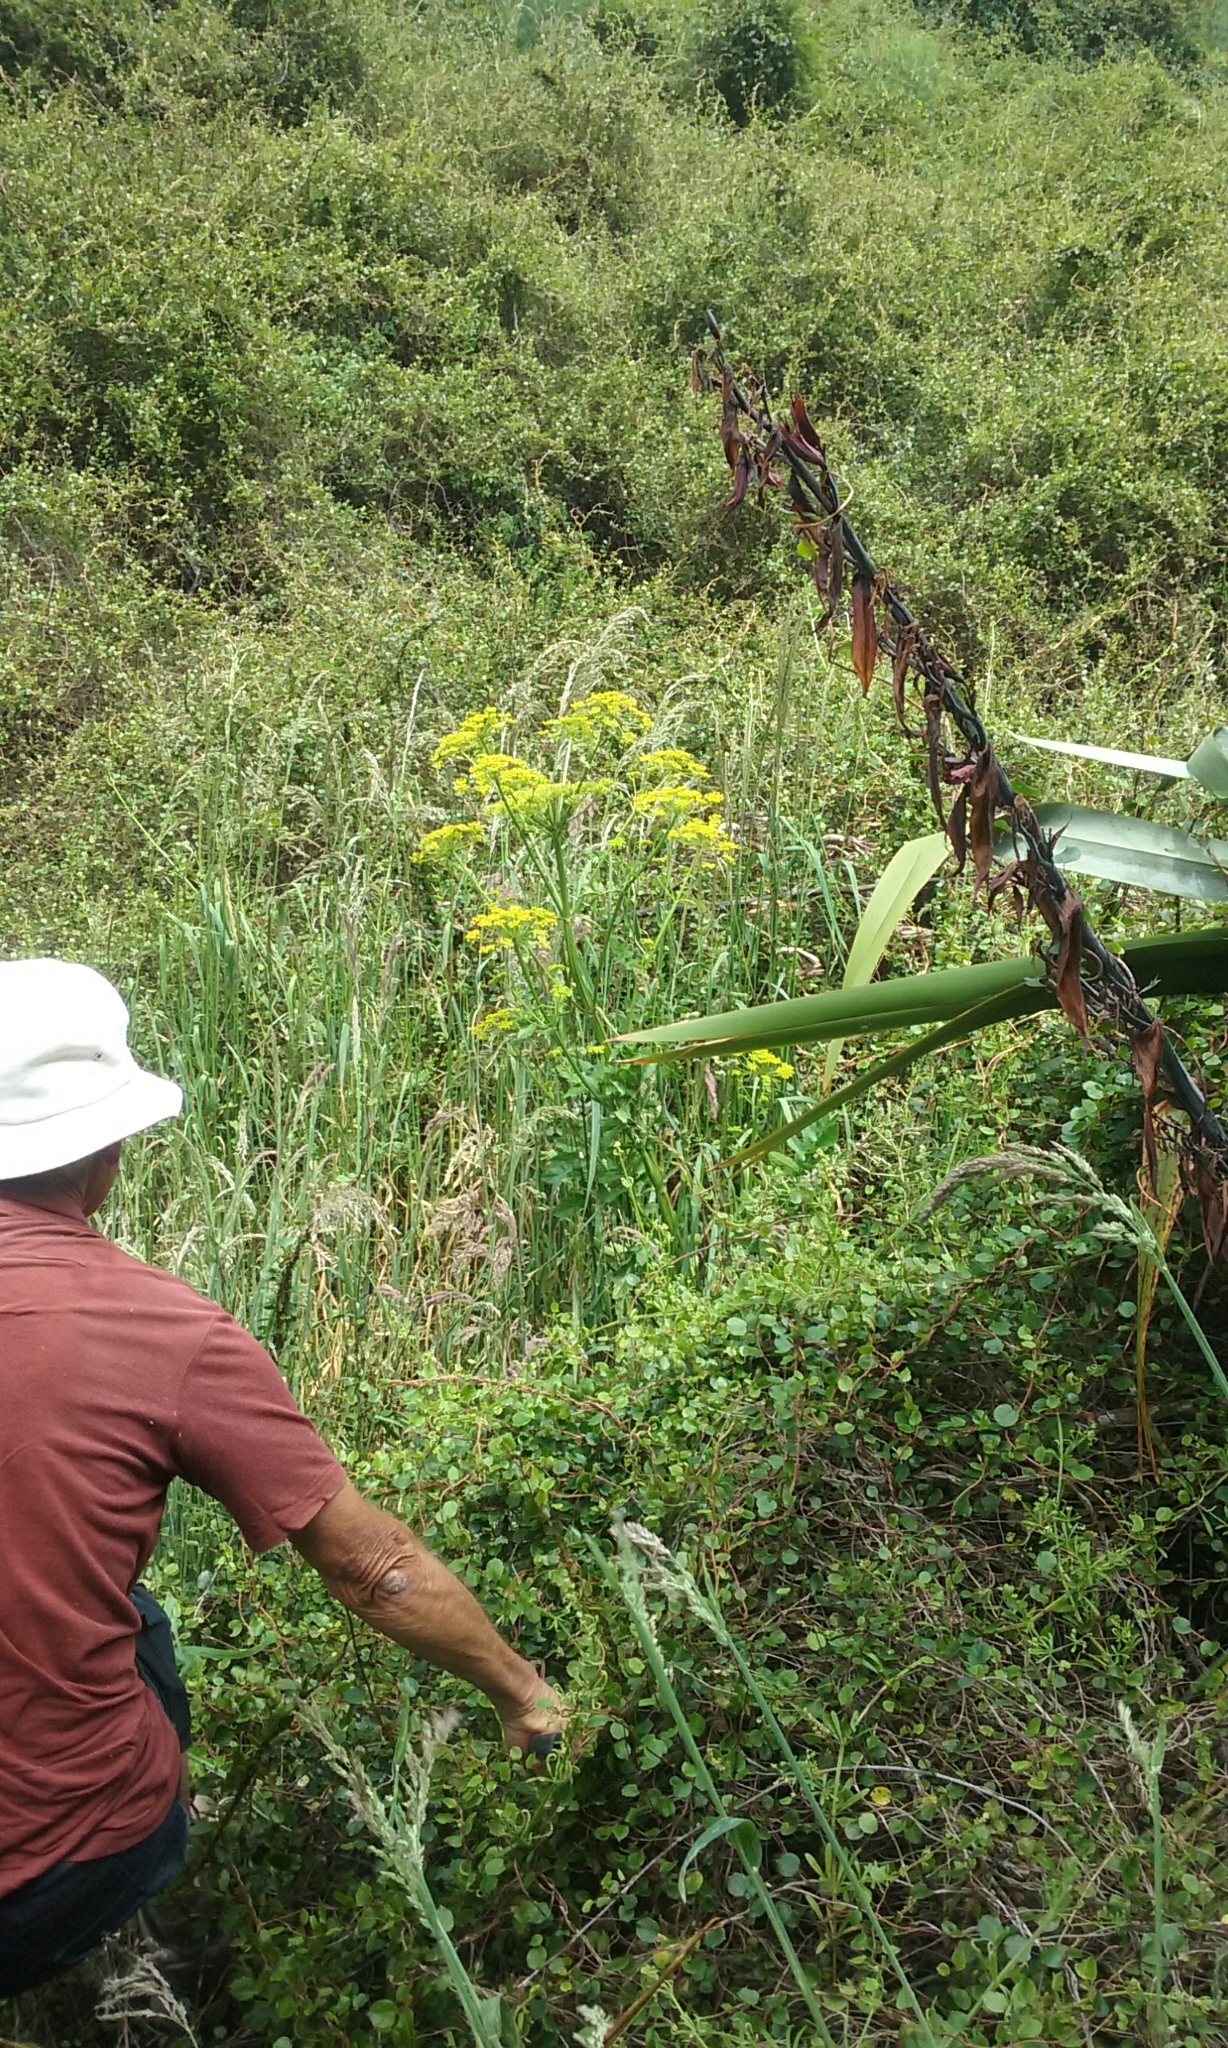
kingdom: Plantae
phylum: Tracheophyta
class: Magnoliopsida
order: Apiales
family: Apiaceae
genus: Pastinaca
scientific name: Pastinaca sativa
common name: Wild parsnip
